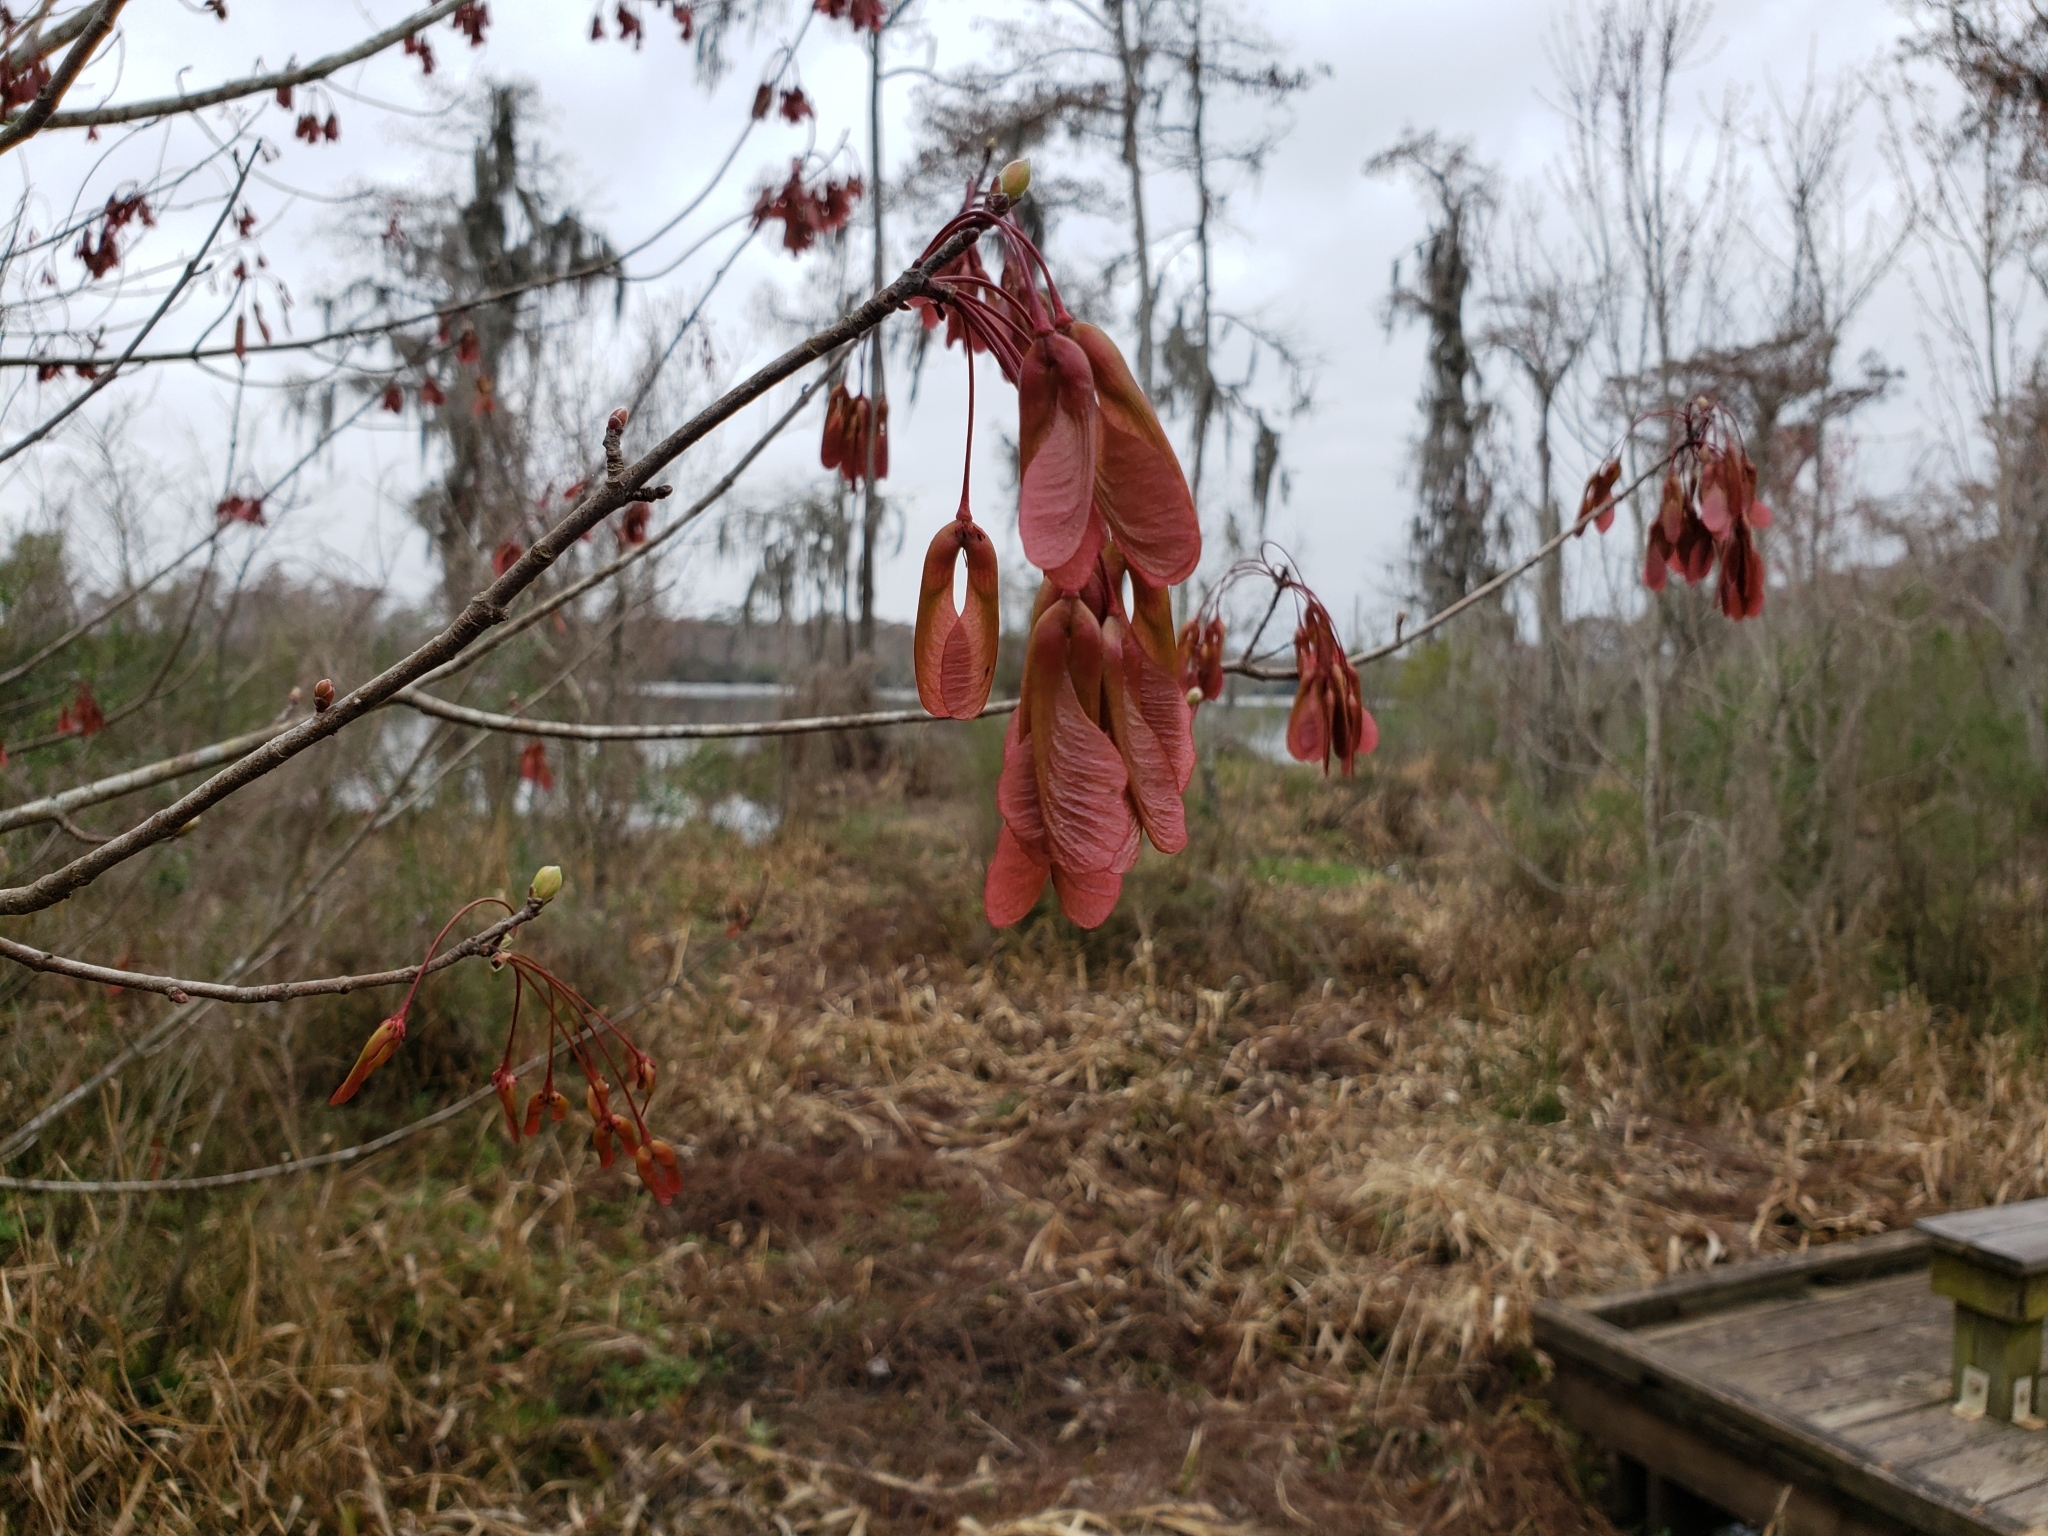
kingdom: Plantae
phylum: Tracheophyta
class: Magnoliopsida
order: Sapindales
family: Sapindaceae
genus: Acer
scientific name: Acer rubrum
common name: Red maple
